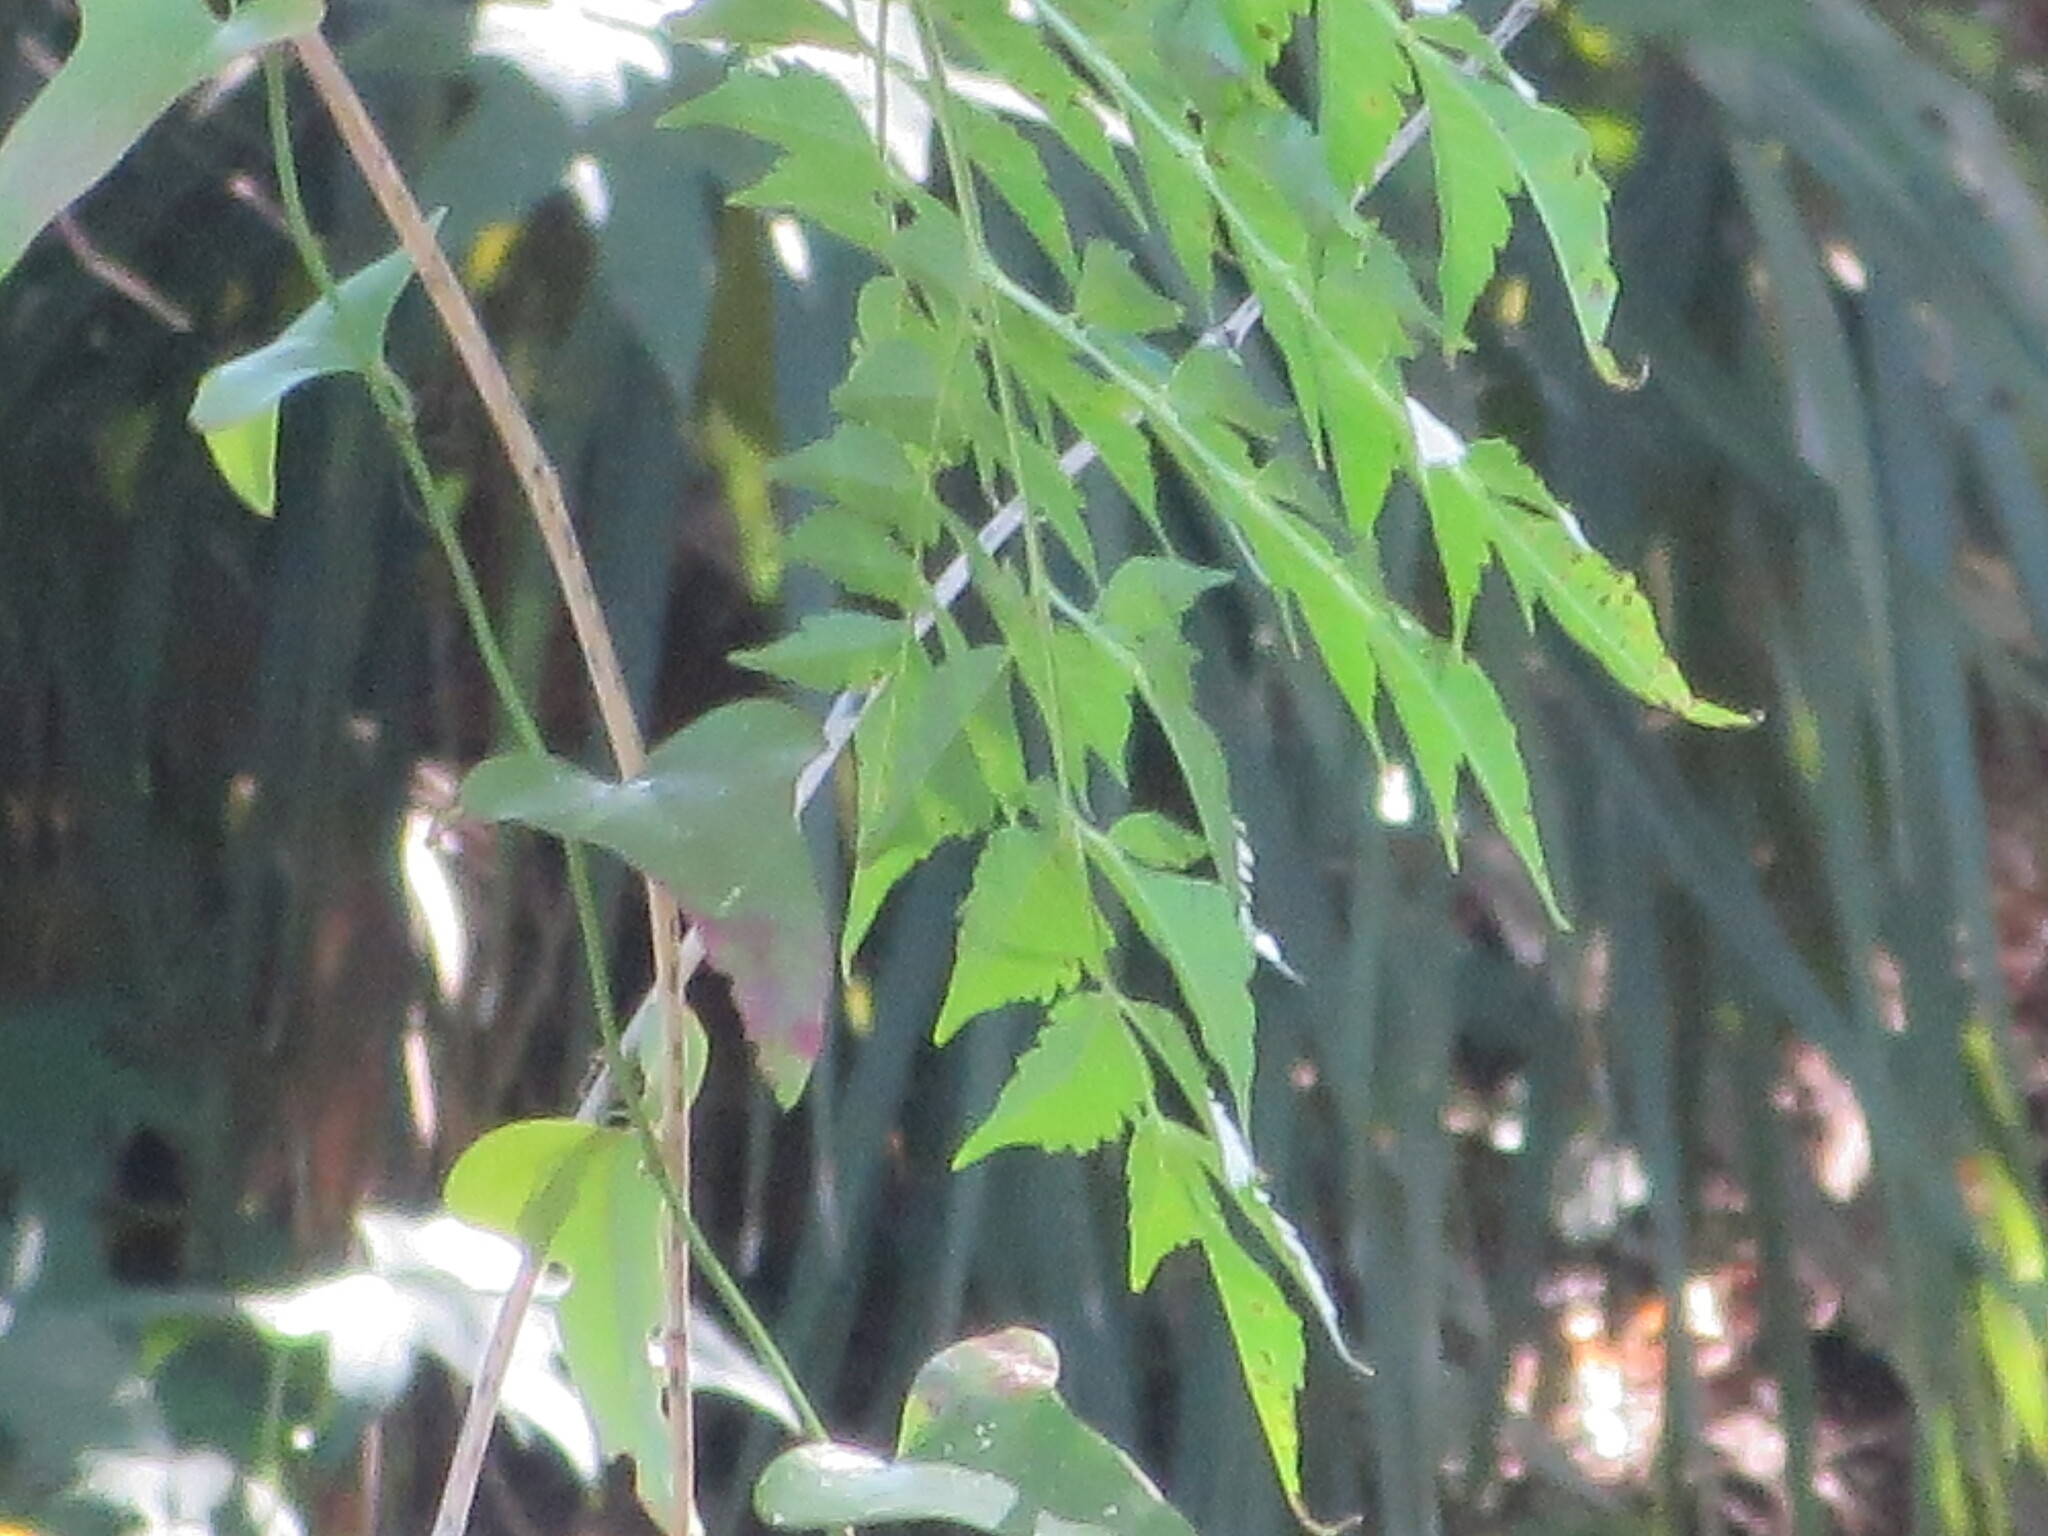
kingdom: Plantae
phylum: Tracheophyta
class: Magnoliopsida
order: Sapindales
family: Meliaceae
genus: Melia
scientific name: Melia azedarach
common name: Chinaberrytree
